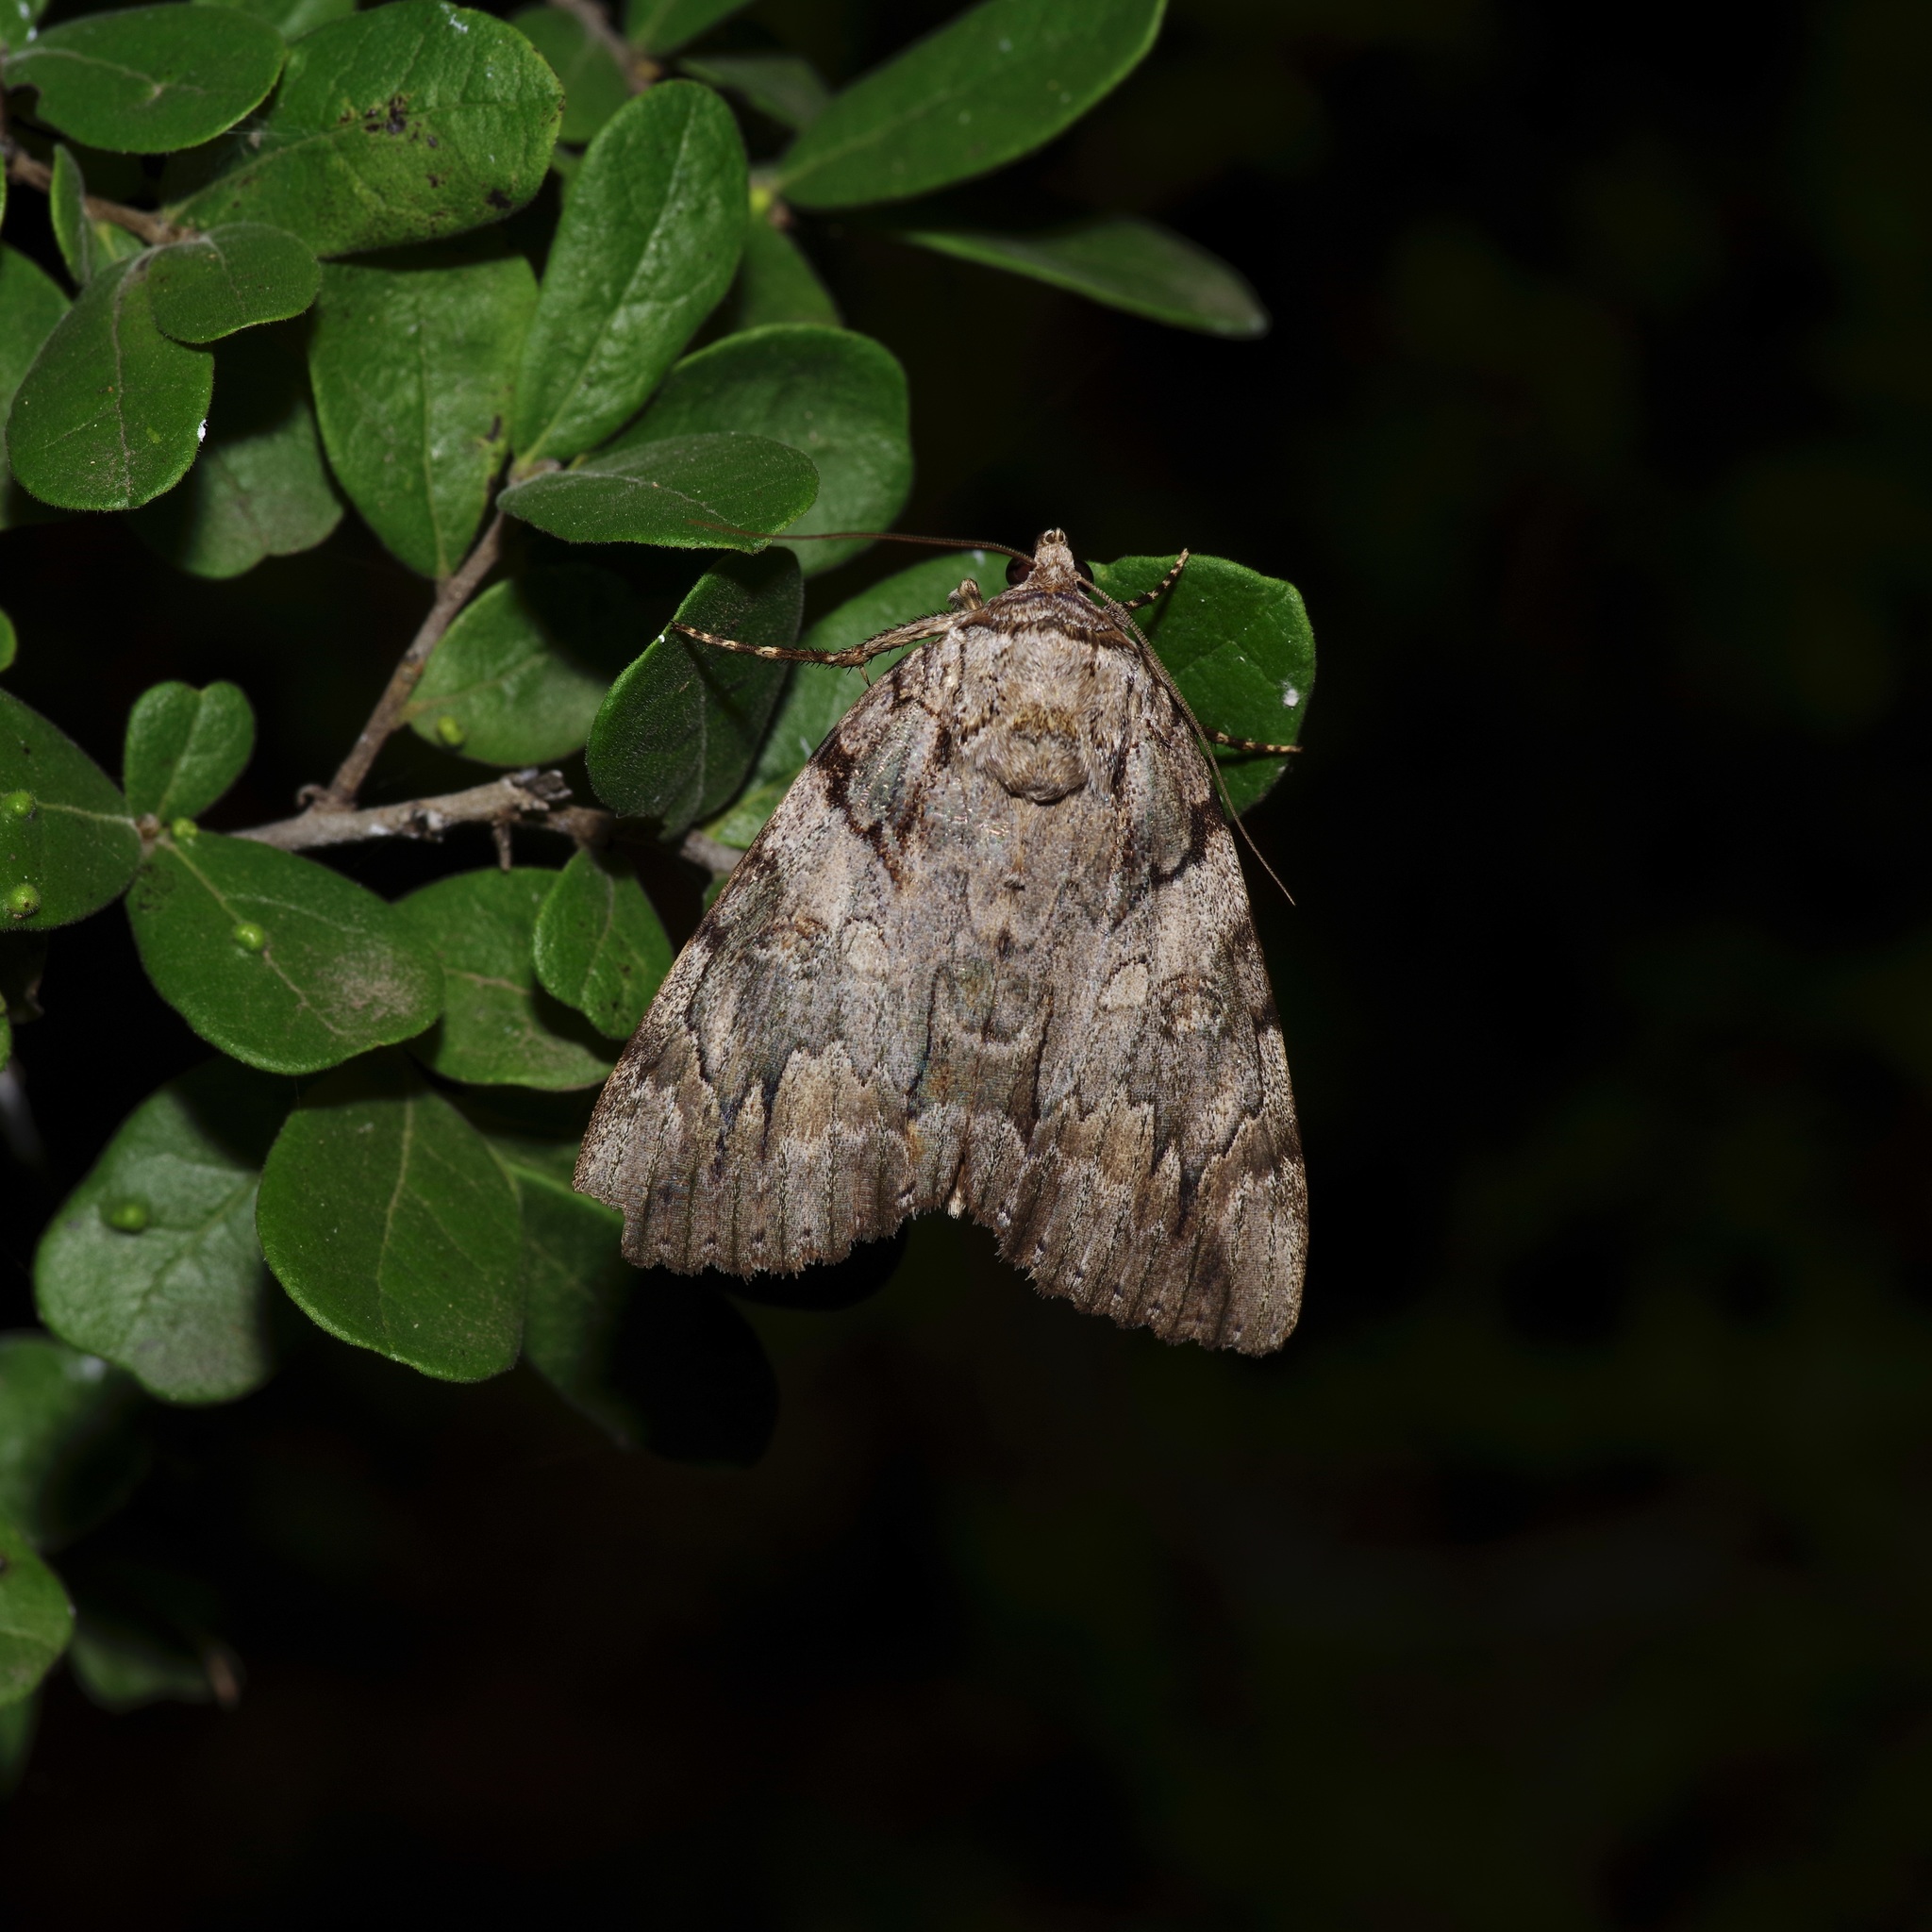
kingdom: Animalia
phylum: Arthropoda
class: Insecta
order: Lepidoptera
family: Erebidae
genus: Catocala
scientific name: Catocala neogama
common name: Bride underwing
